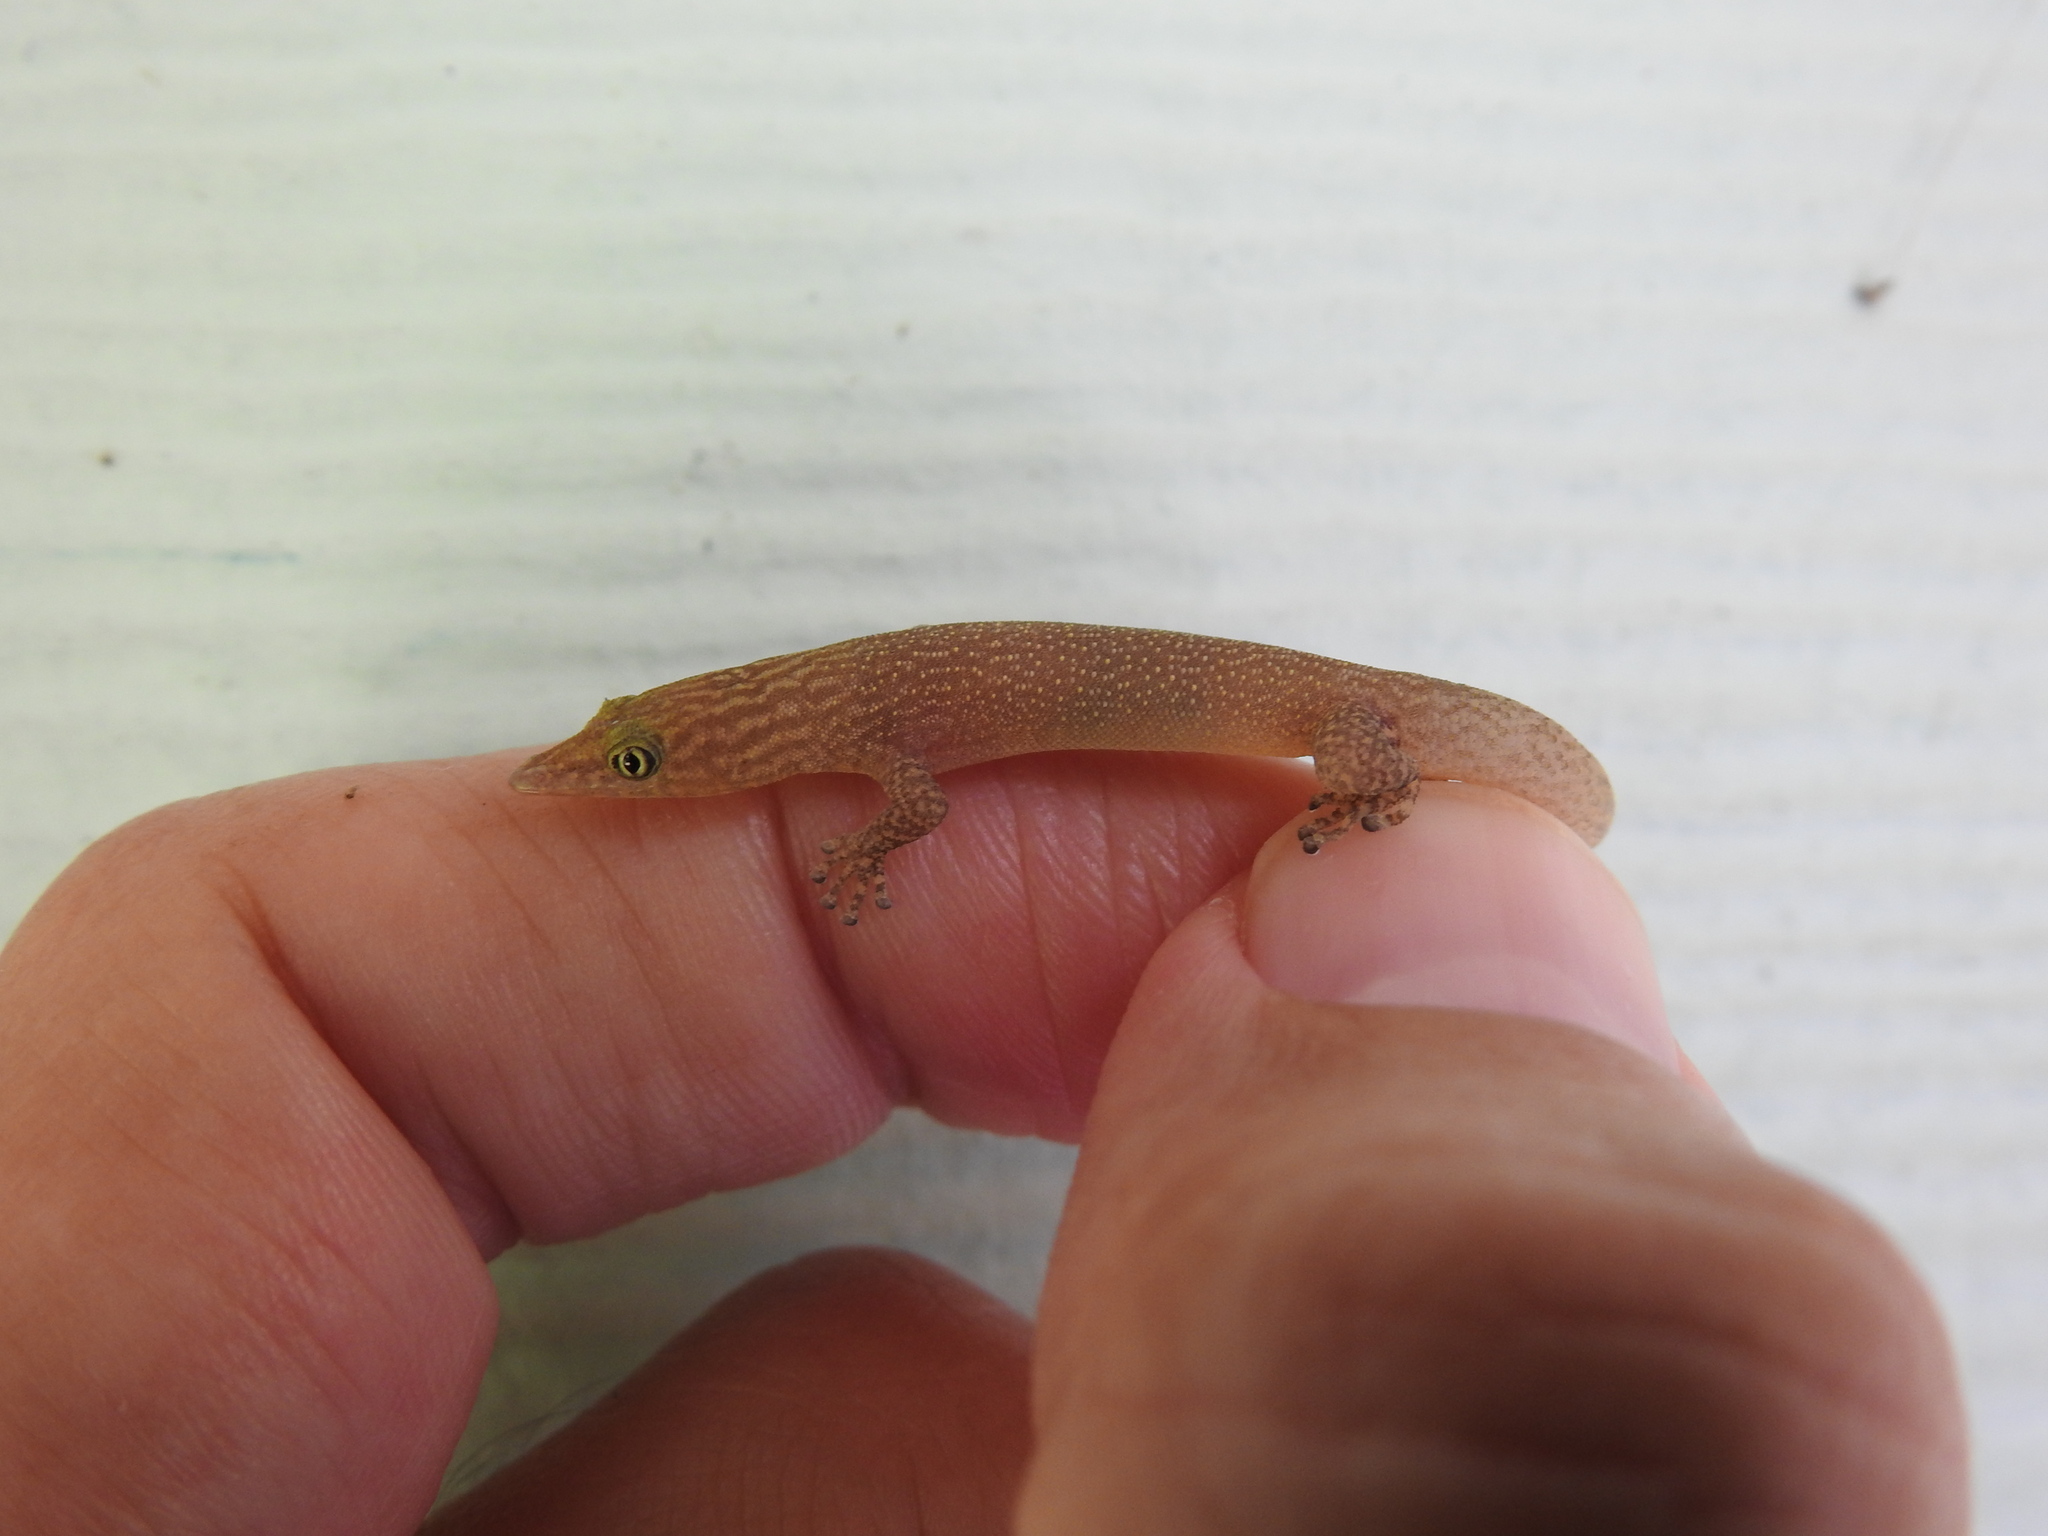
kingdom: Animalia
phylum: Chordata
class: Squamata
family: Sphaerodactylidae
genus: Sphaerodactylus
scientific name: Sphaerodactylus elegans
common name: Ashy gecko
